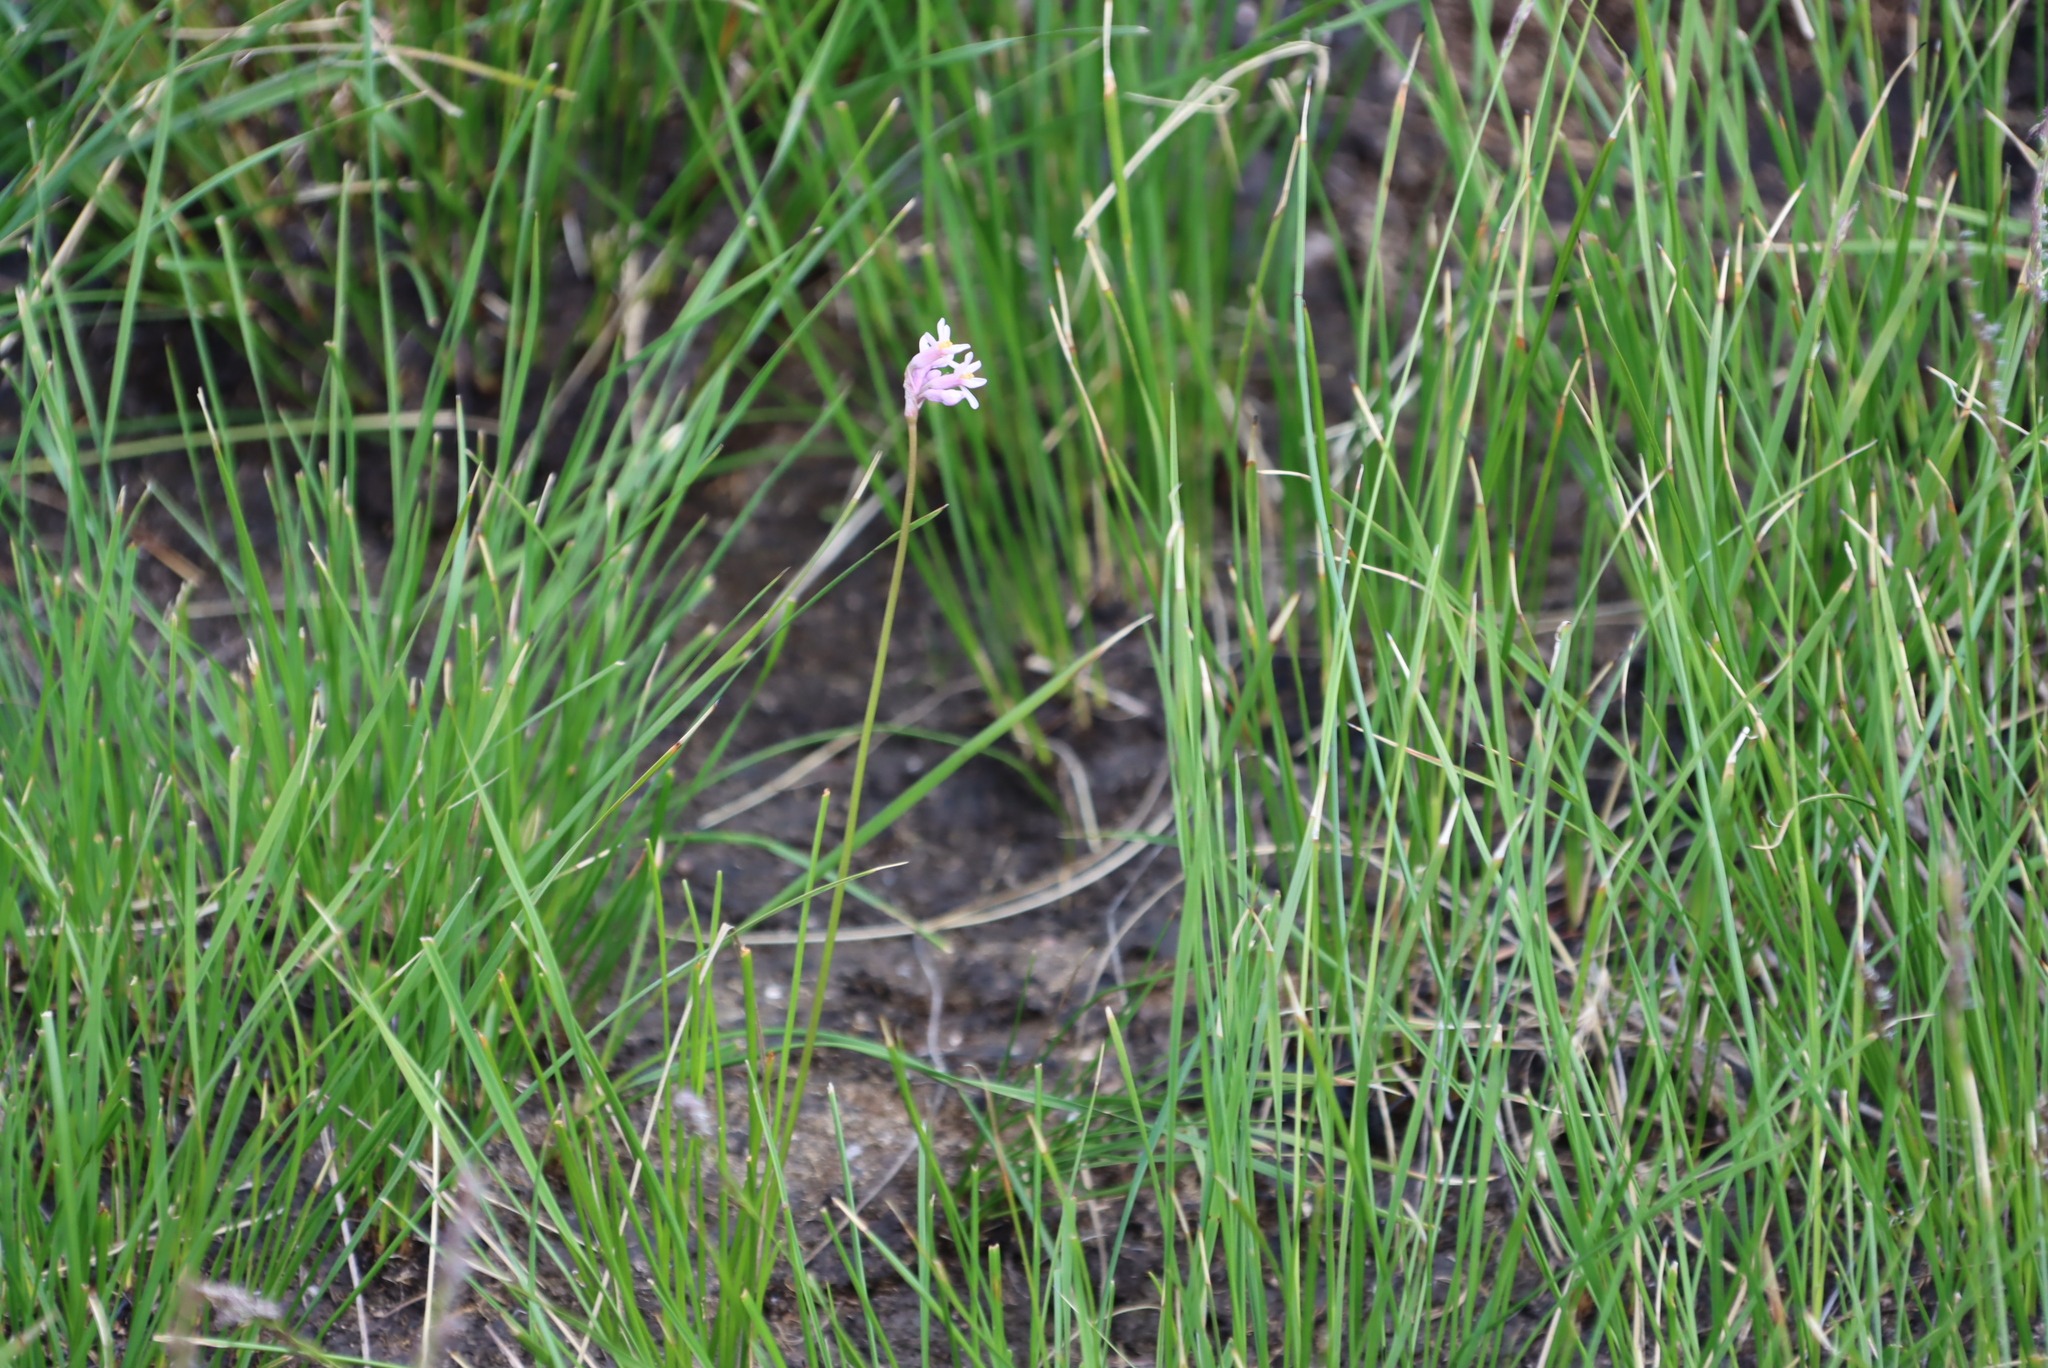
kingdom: Plantae
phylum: Tracheophyta
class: Liliopsida
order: Asparagales
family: Amaryllidaceae
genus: Tulbaghia
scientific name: Tulbaghia coddii
